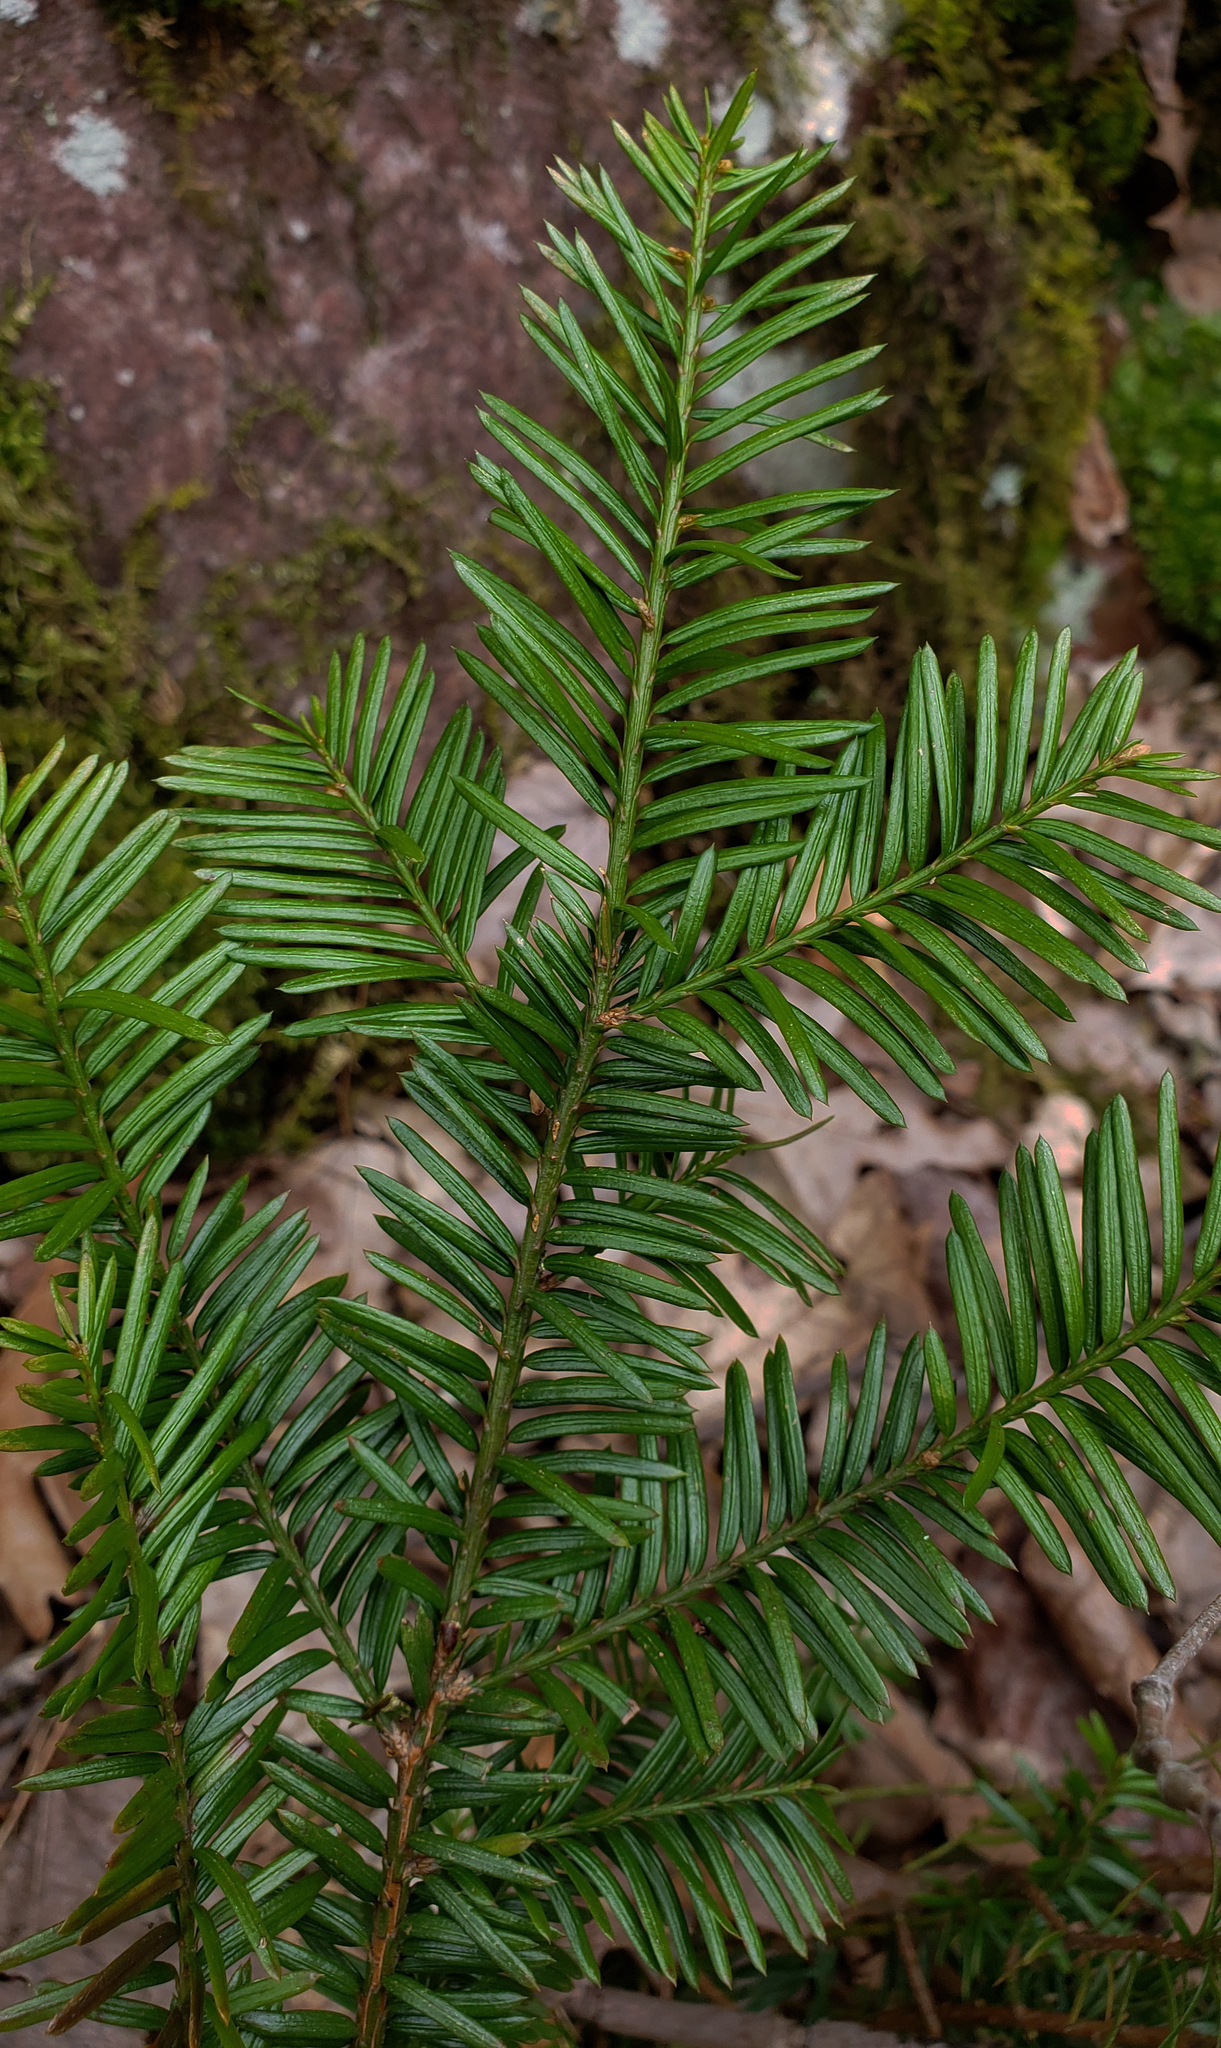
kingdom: Plantae
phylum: Tracheophyta
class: Pinopsida
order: Pinales
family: Taxaceae
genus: Taxus
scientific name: Taxus canadensis
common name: American yew
